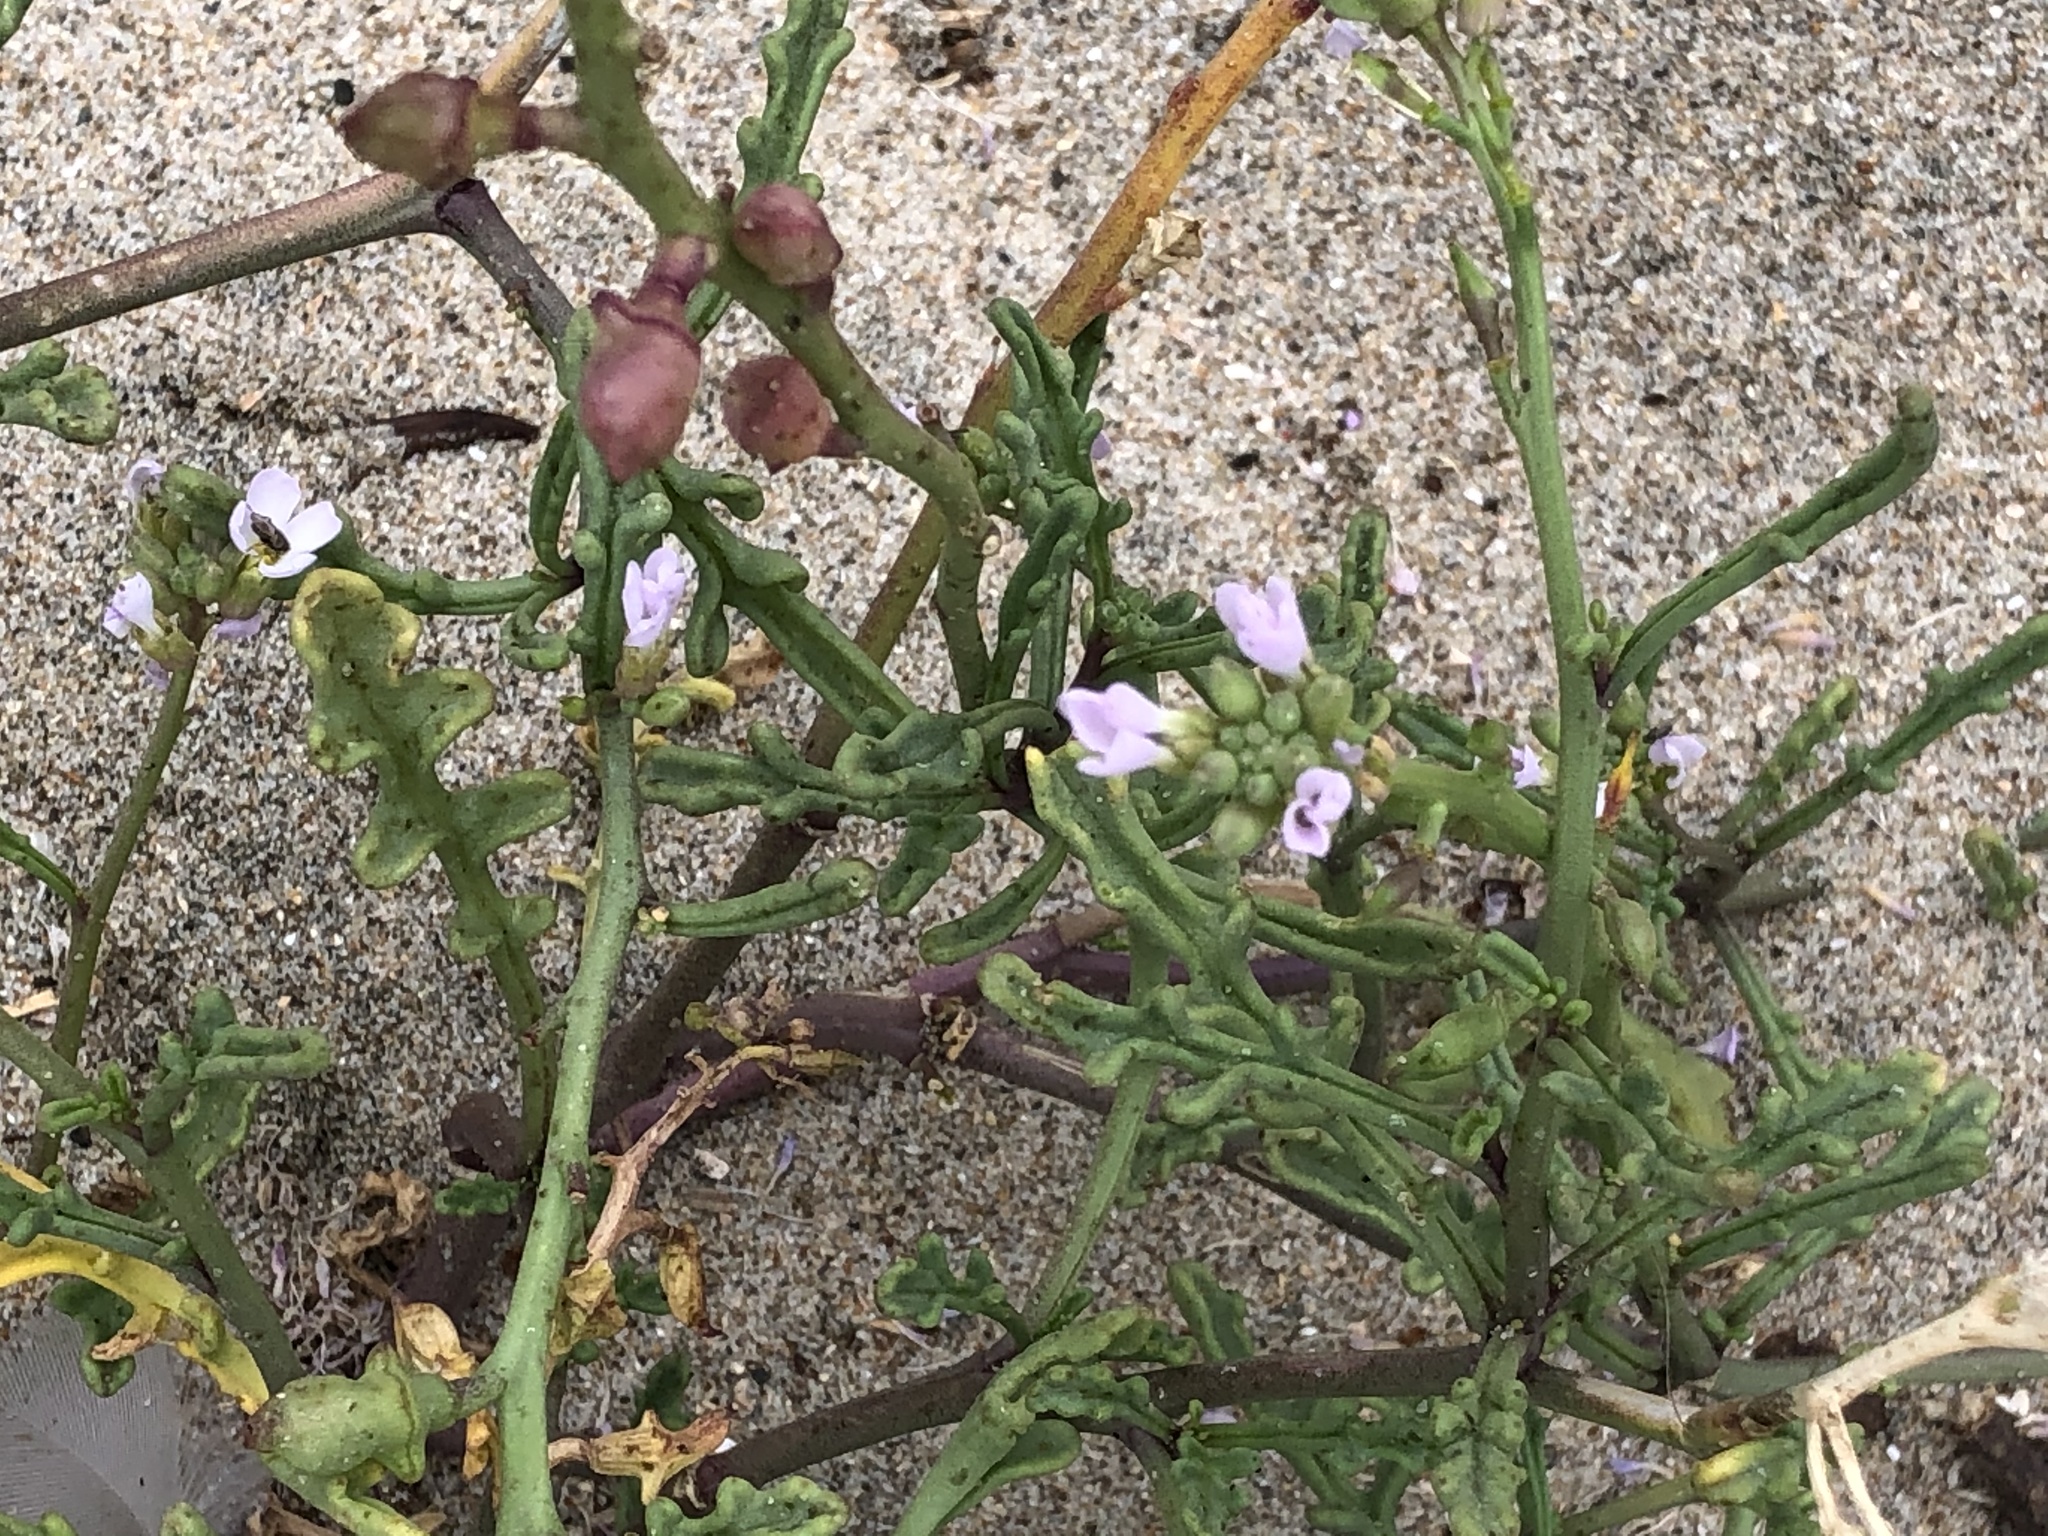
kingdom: Plantae
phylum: Tracheophyta
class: Magnoliopsida
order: Brassicales
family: Brassicaceae
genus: Cakile
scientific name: Cakile maritima
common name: Sea rocket
